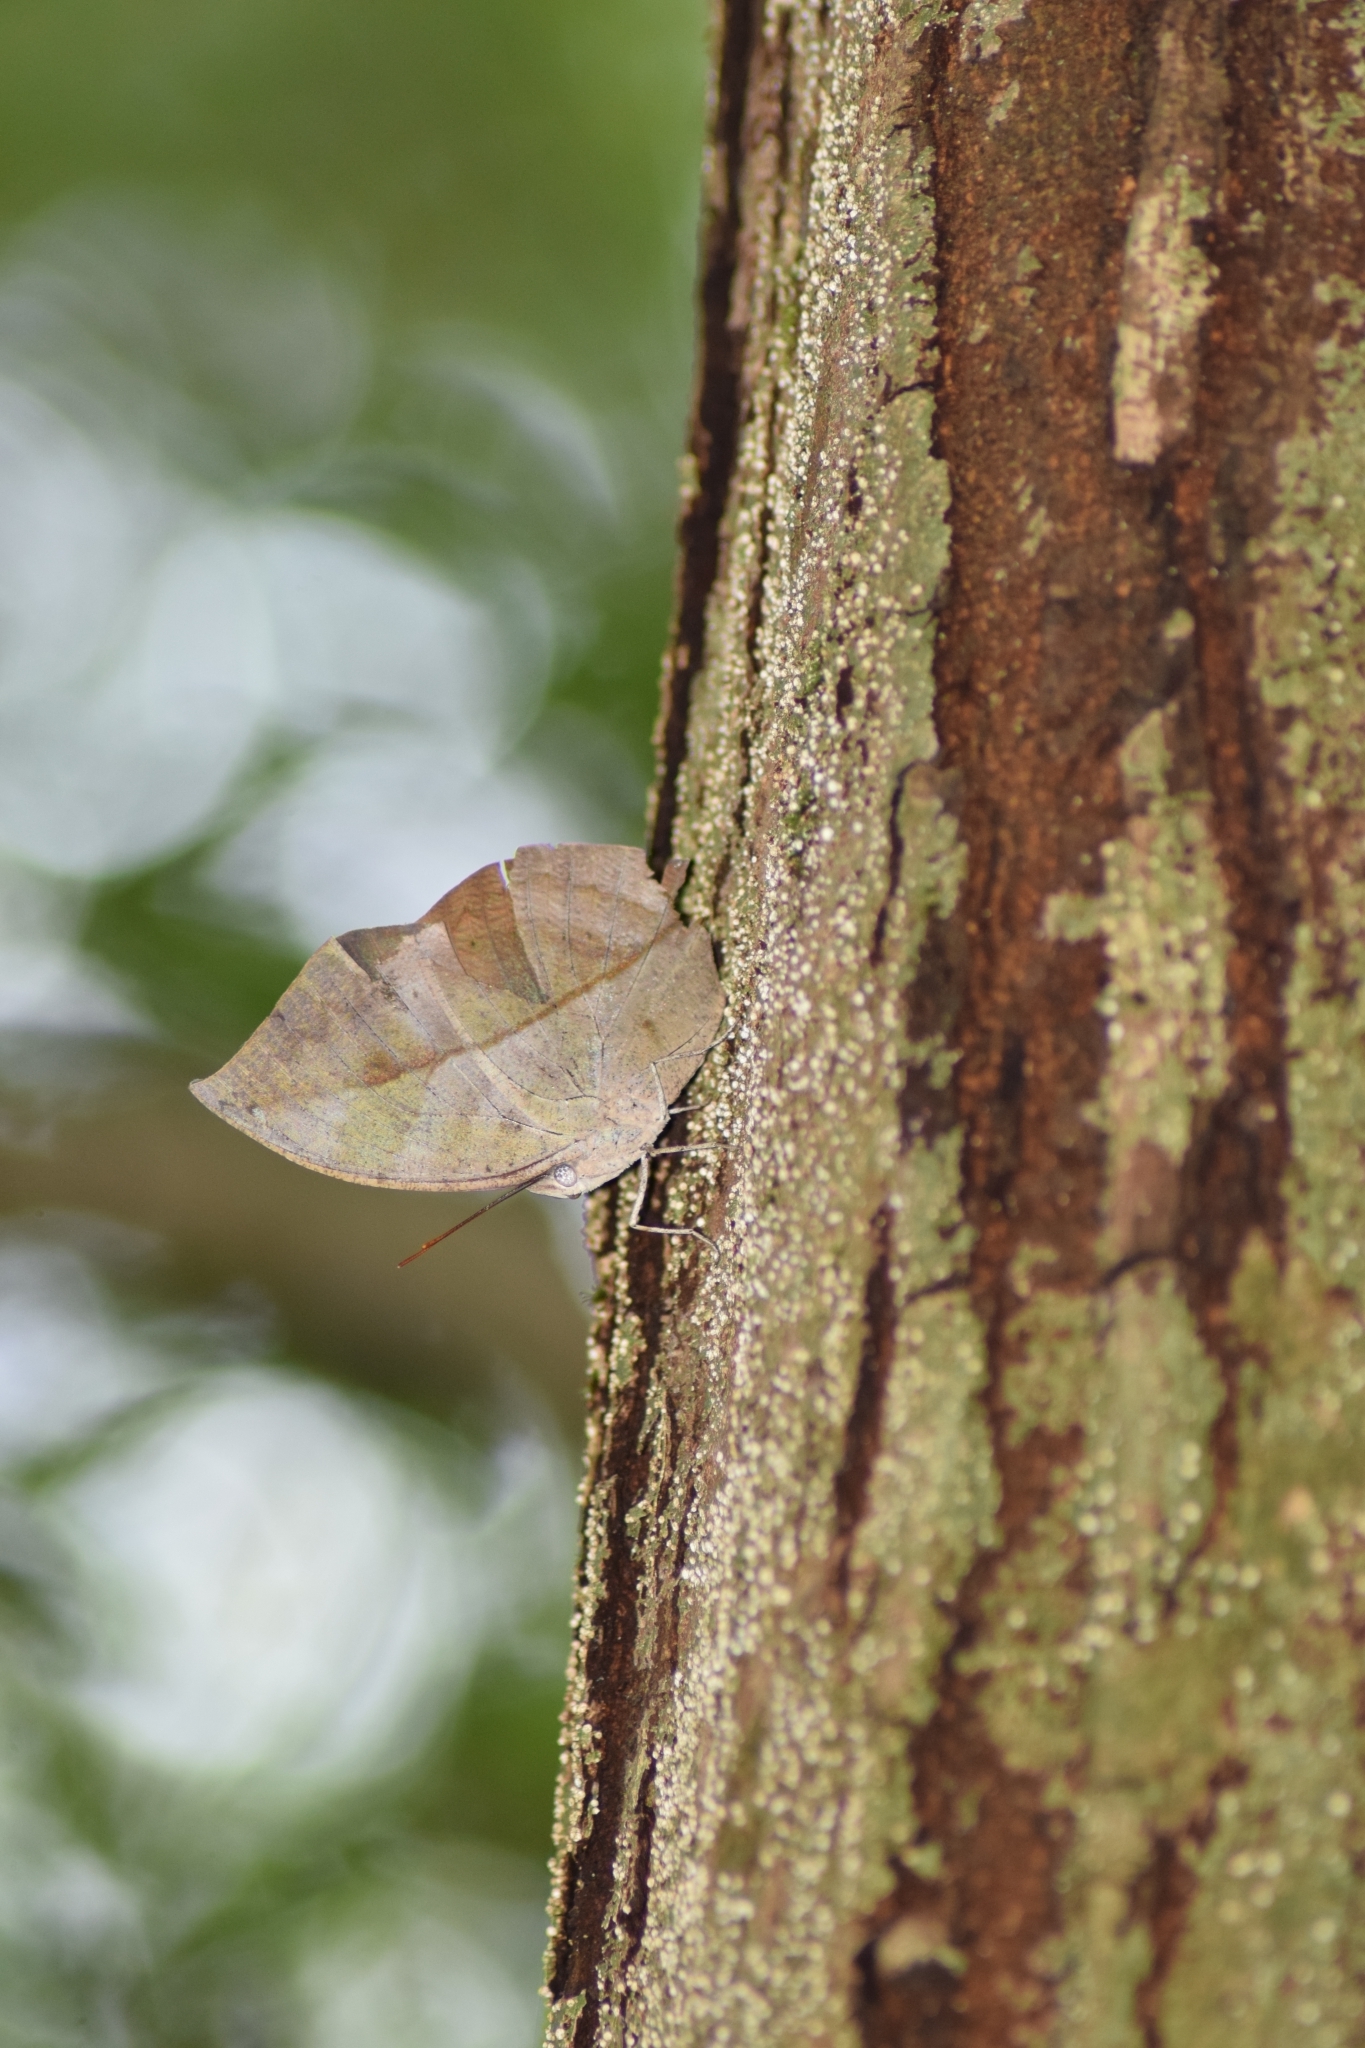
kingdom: Animalia
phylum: Arthropoda
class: Insecta
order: Lepidoptera
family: Nymphalidae
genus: Kallima
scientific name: Kallima horsfieldii
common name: Sahyadri blue oakleaf
